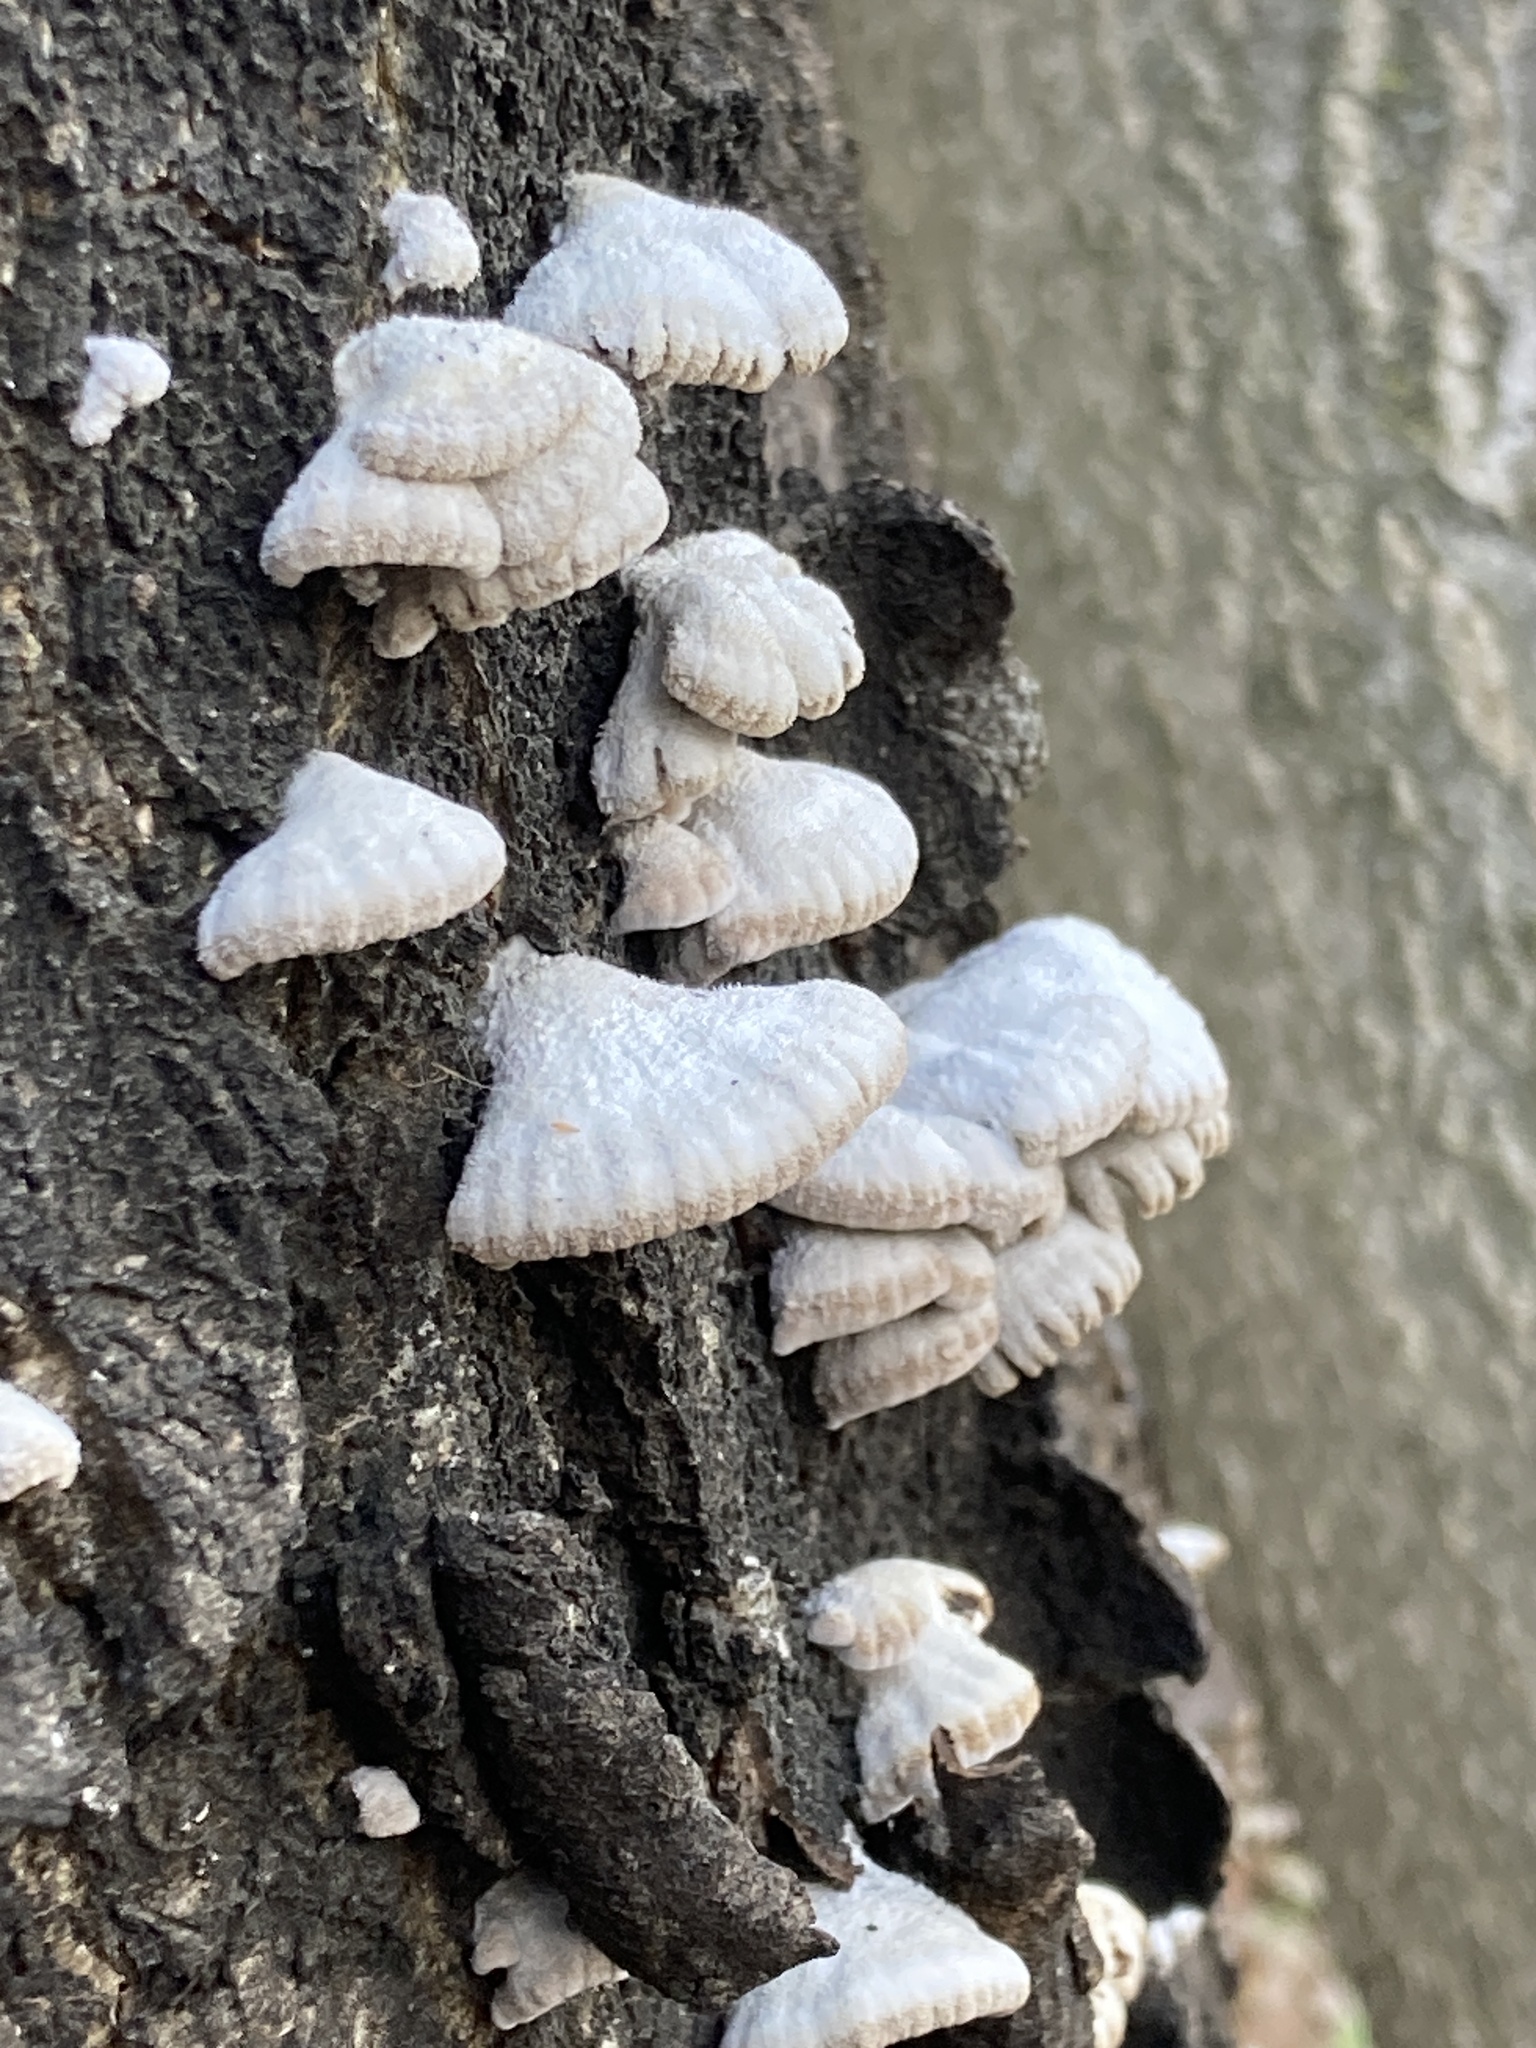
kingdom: Fungi
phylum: Basidiomycota
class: Agaricomycetes
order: Agaricales
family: Schizophyllaceae
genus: Schizophyllum
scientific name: Schizophyllum commune
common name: Common porecrust
